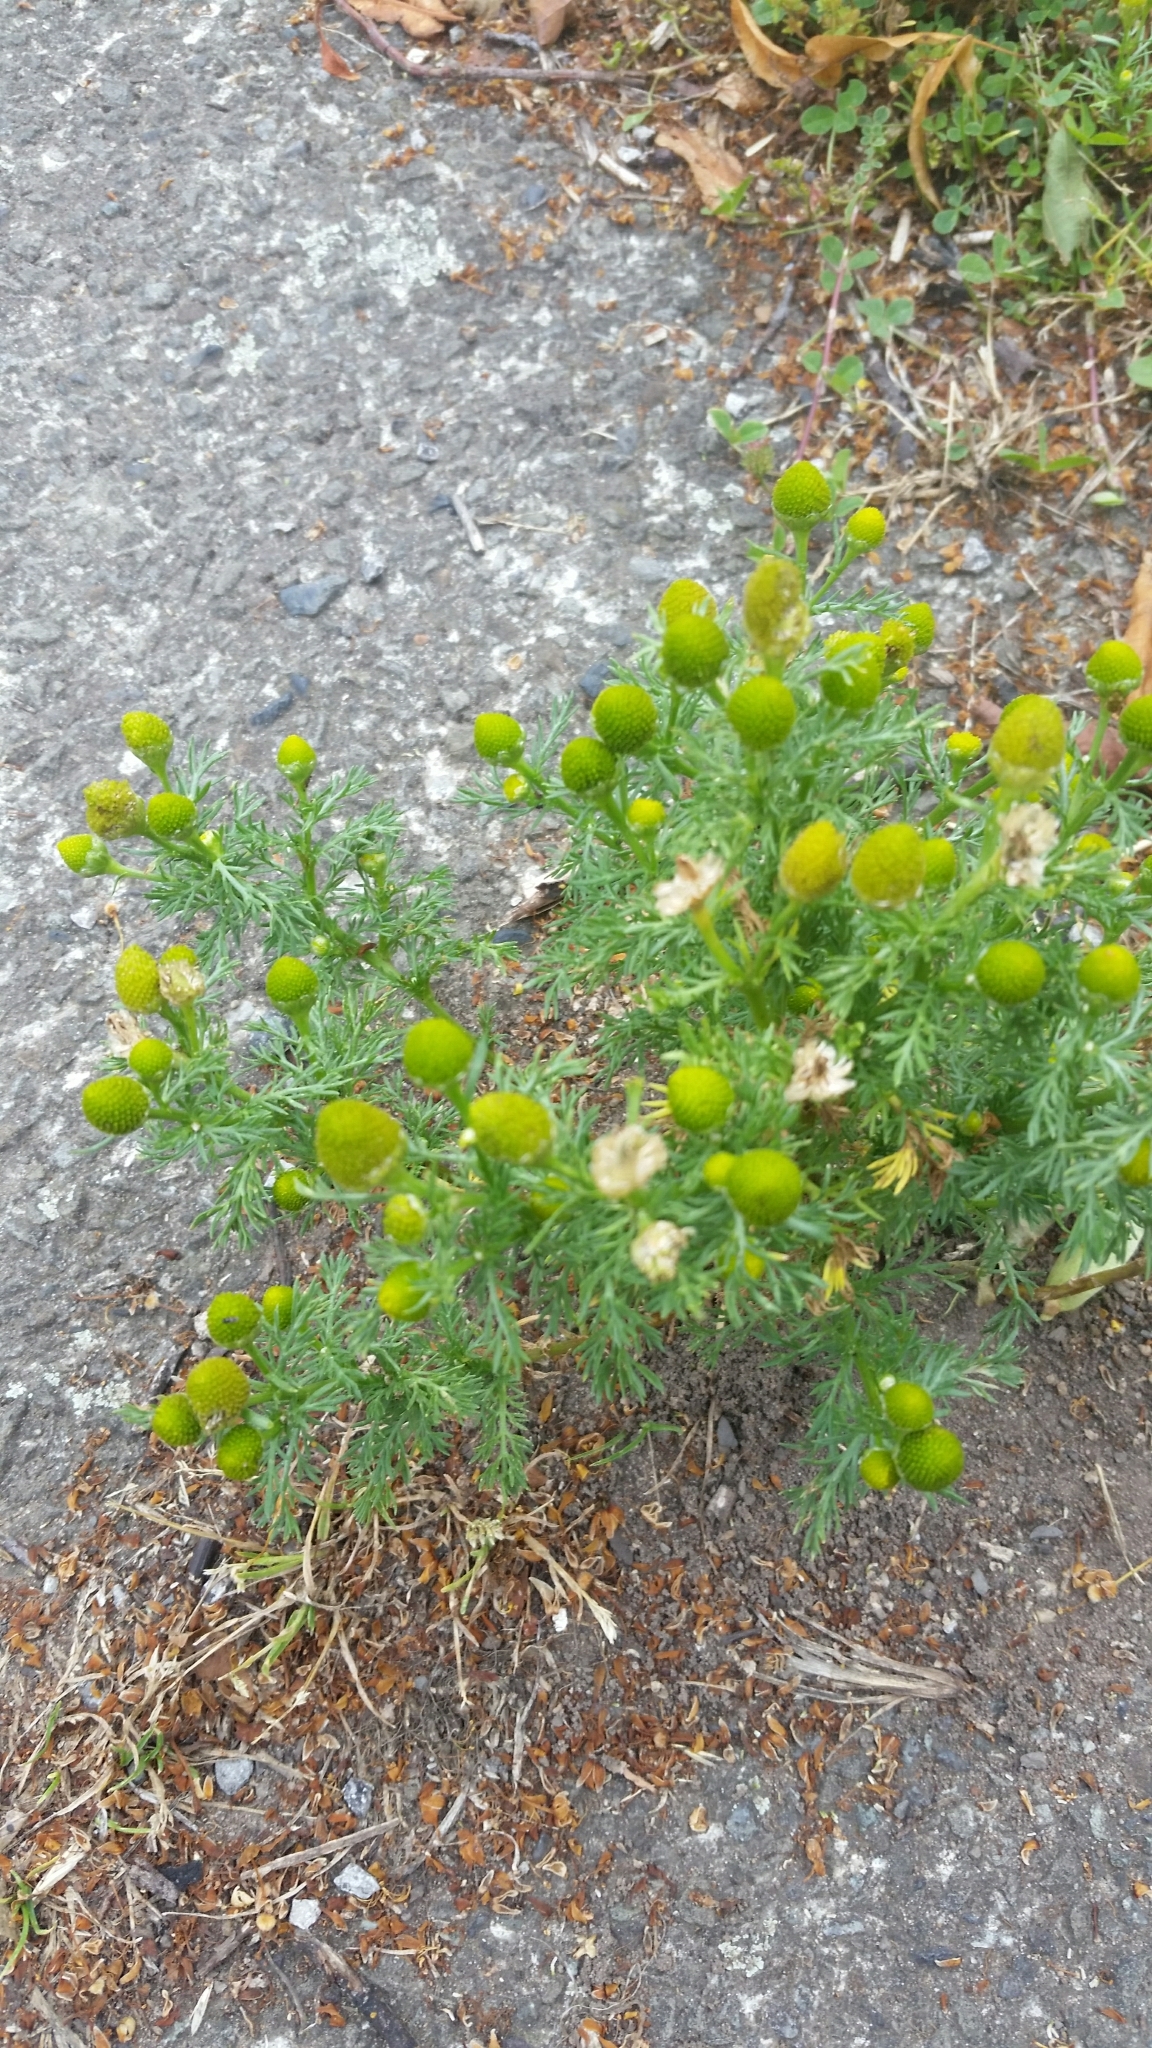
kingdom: Plantae
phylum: Tracheophyta
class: Magnoliopsida
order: Asterales
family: Asteraceae
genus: Matricaria
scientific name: Matricaria discoidea
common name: Disc mayweed
